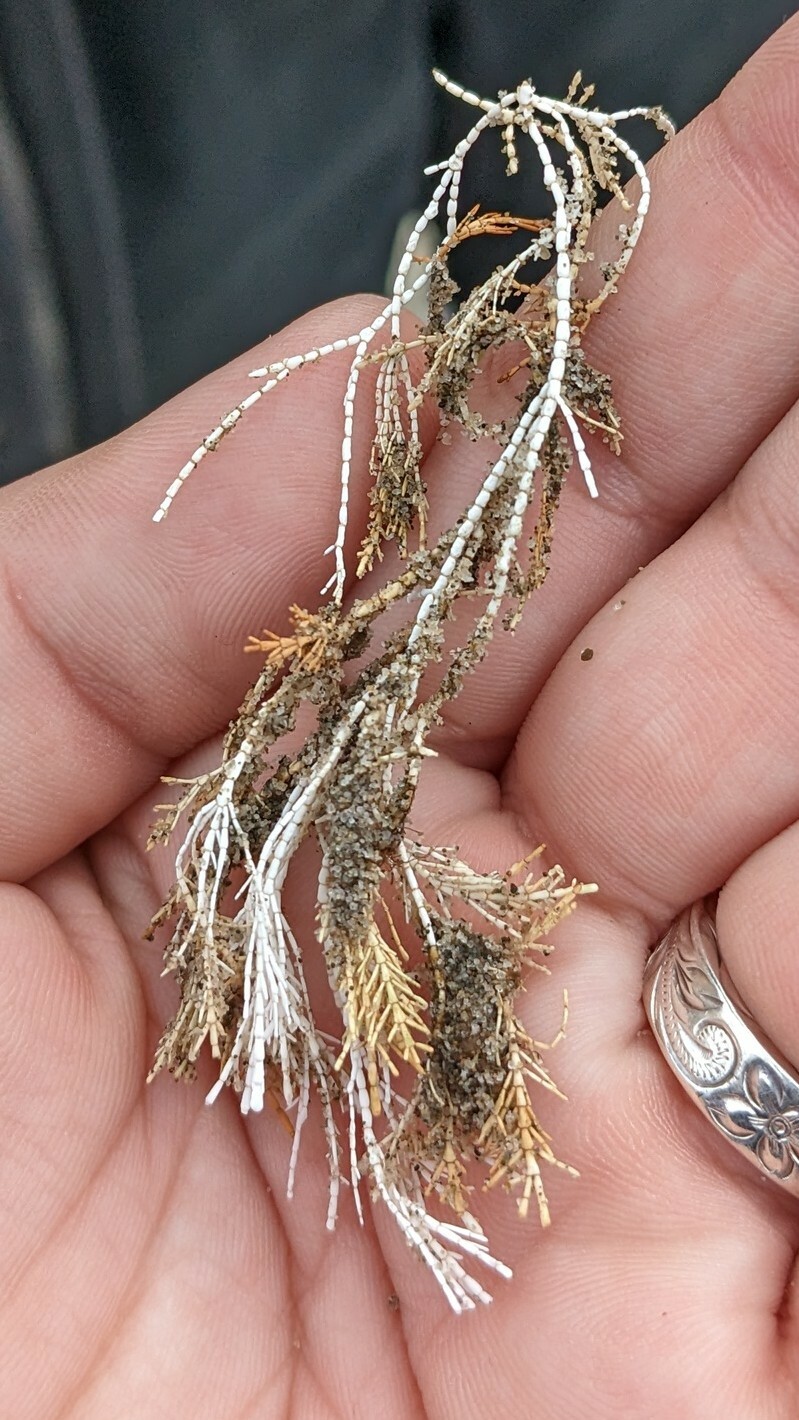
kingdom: Plantae
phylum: Rhodophyta
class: Florideophyceae
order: Corallinales
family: Corallinaceae
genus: Corallina
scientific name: Corallina officinalis
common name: Coral weed
